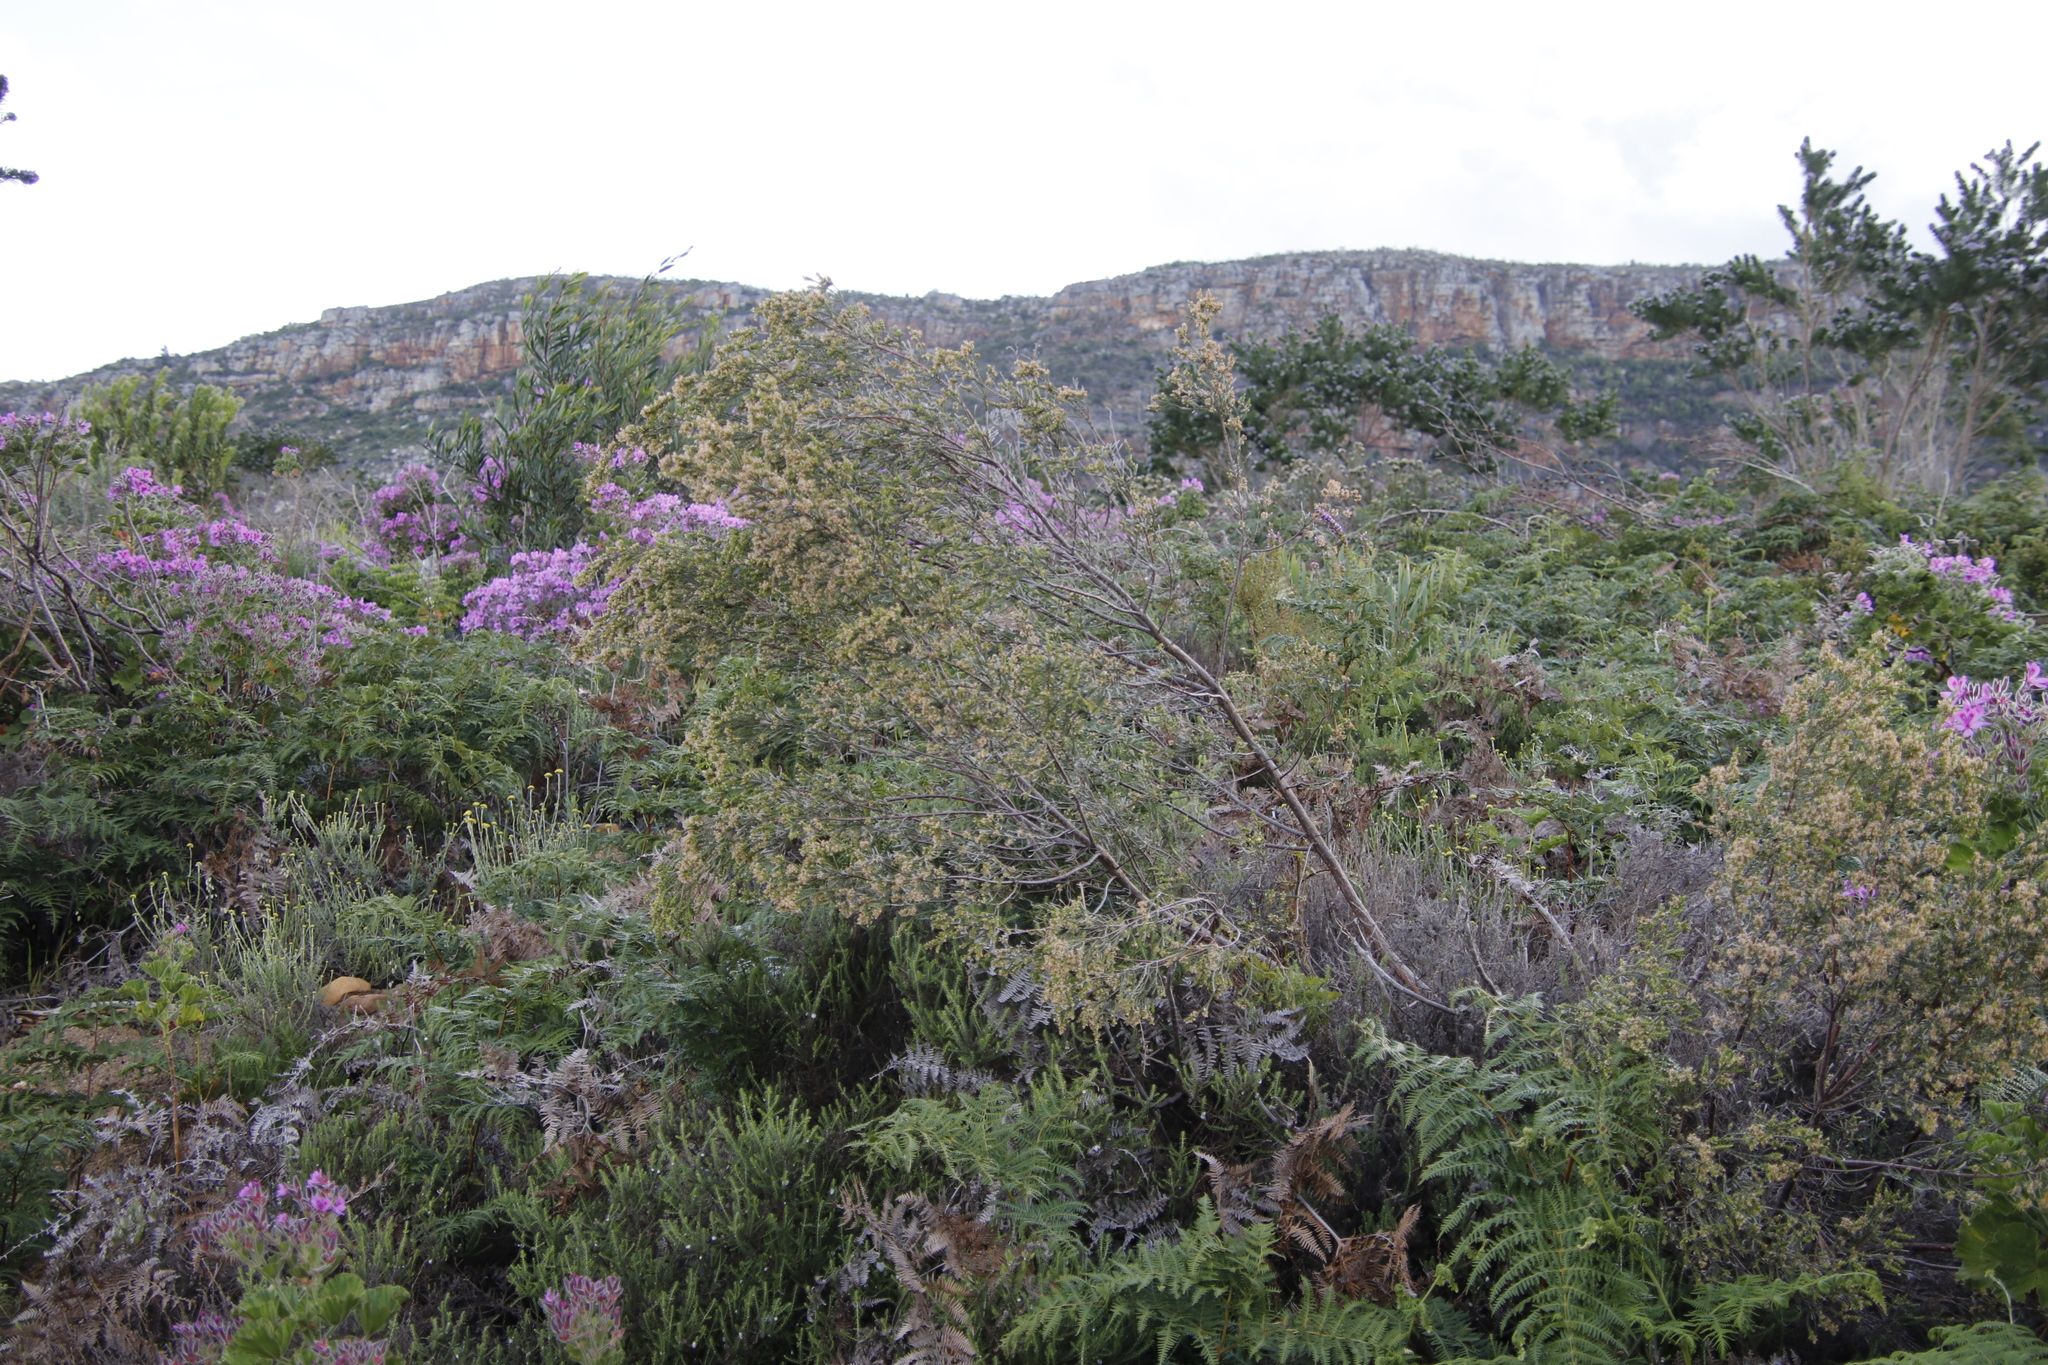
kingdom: Plantae
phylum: Tracheophyta
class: Magnoliopsida
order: Malvales
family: Thymelaeaceae
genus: Passerina
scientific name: Passerina corymbosa
